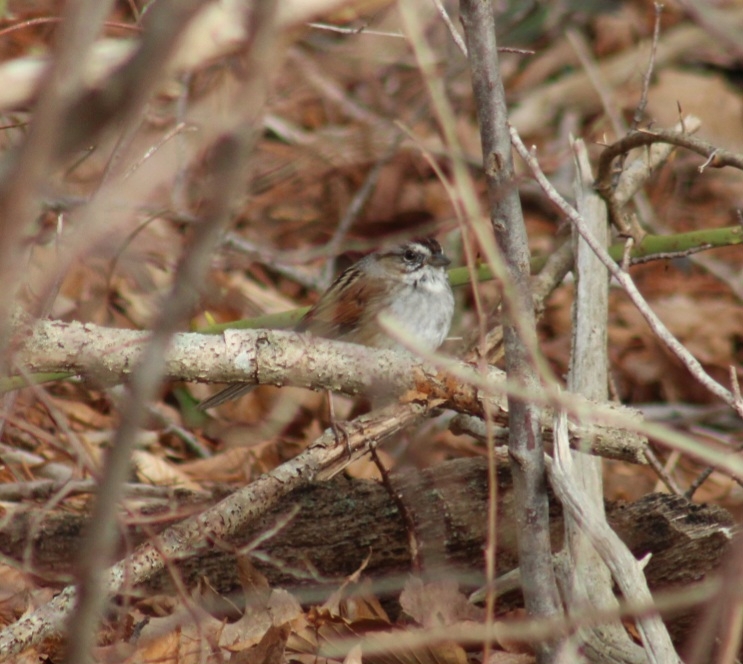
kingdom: Animalia
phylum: Chordata
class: Aves
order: Passeriformes
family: Passerellidae
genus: Melospiza
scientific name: Melospiza georgiana
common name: Swamp sparrow
